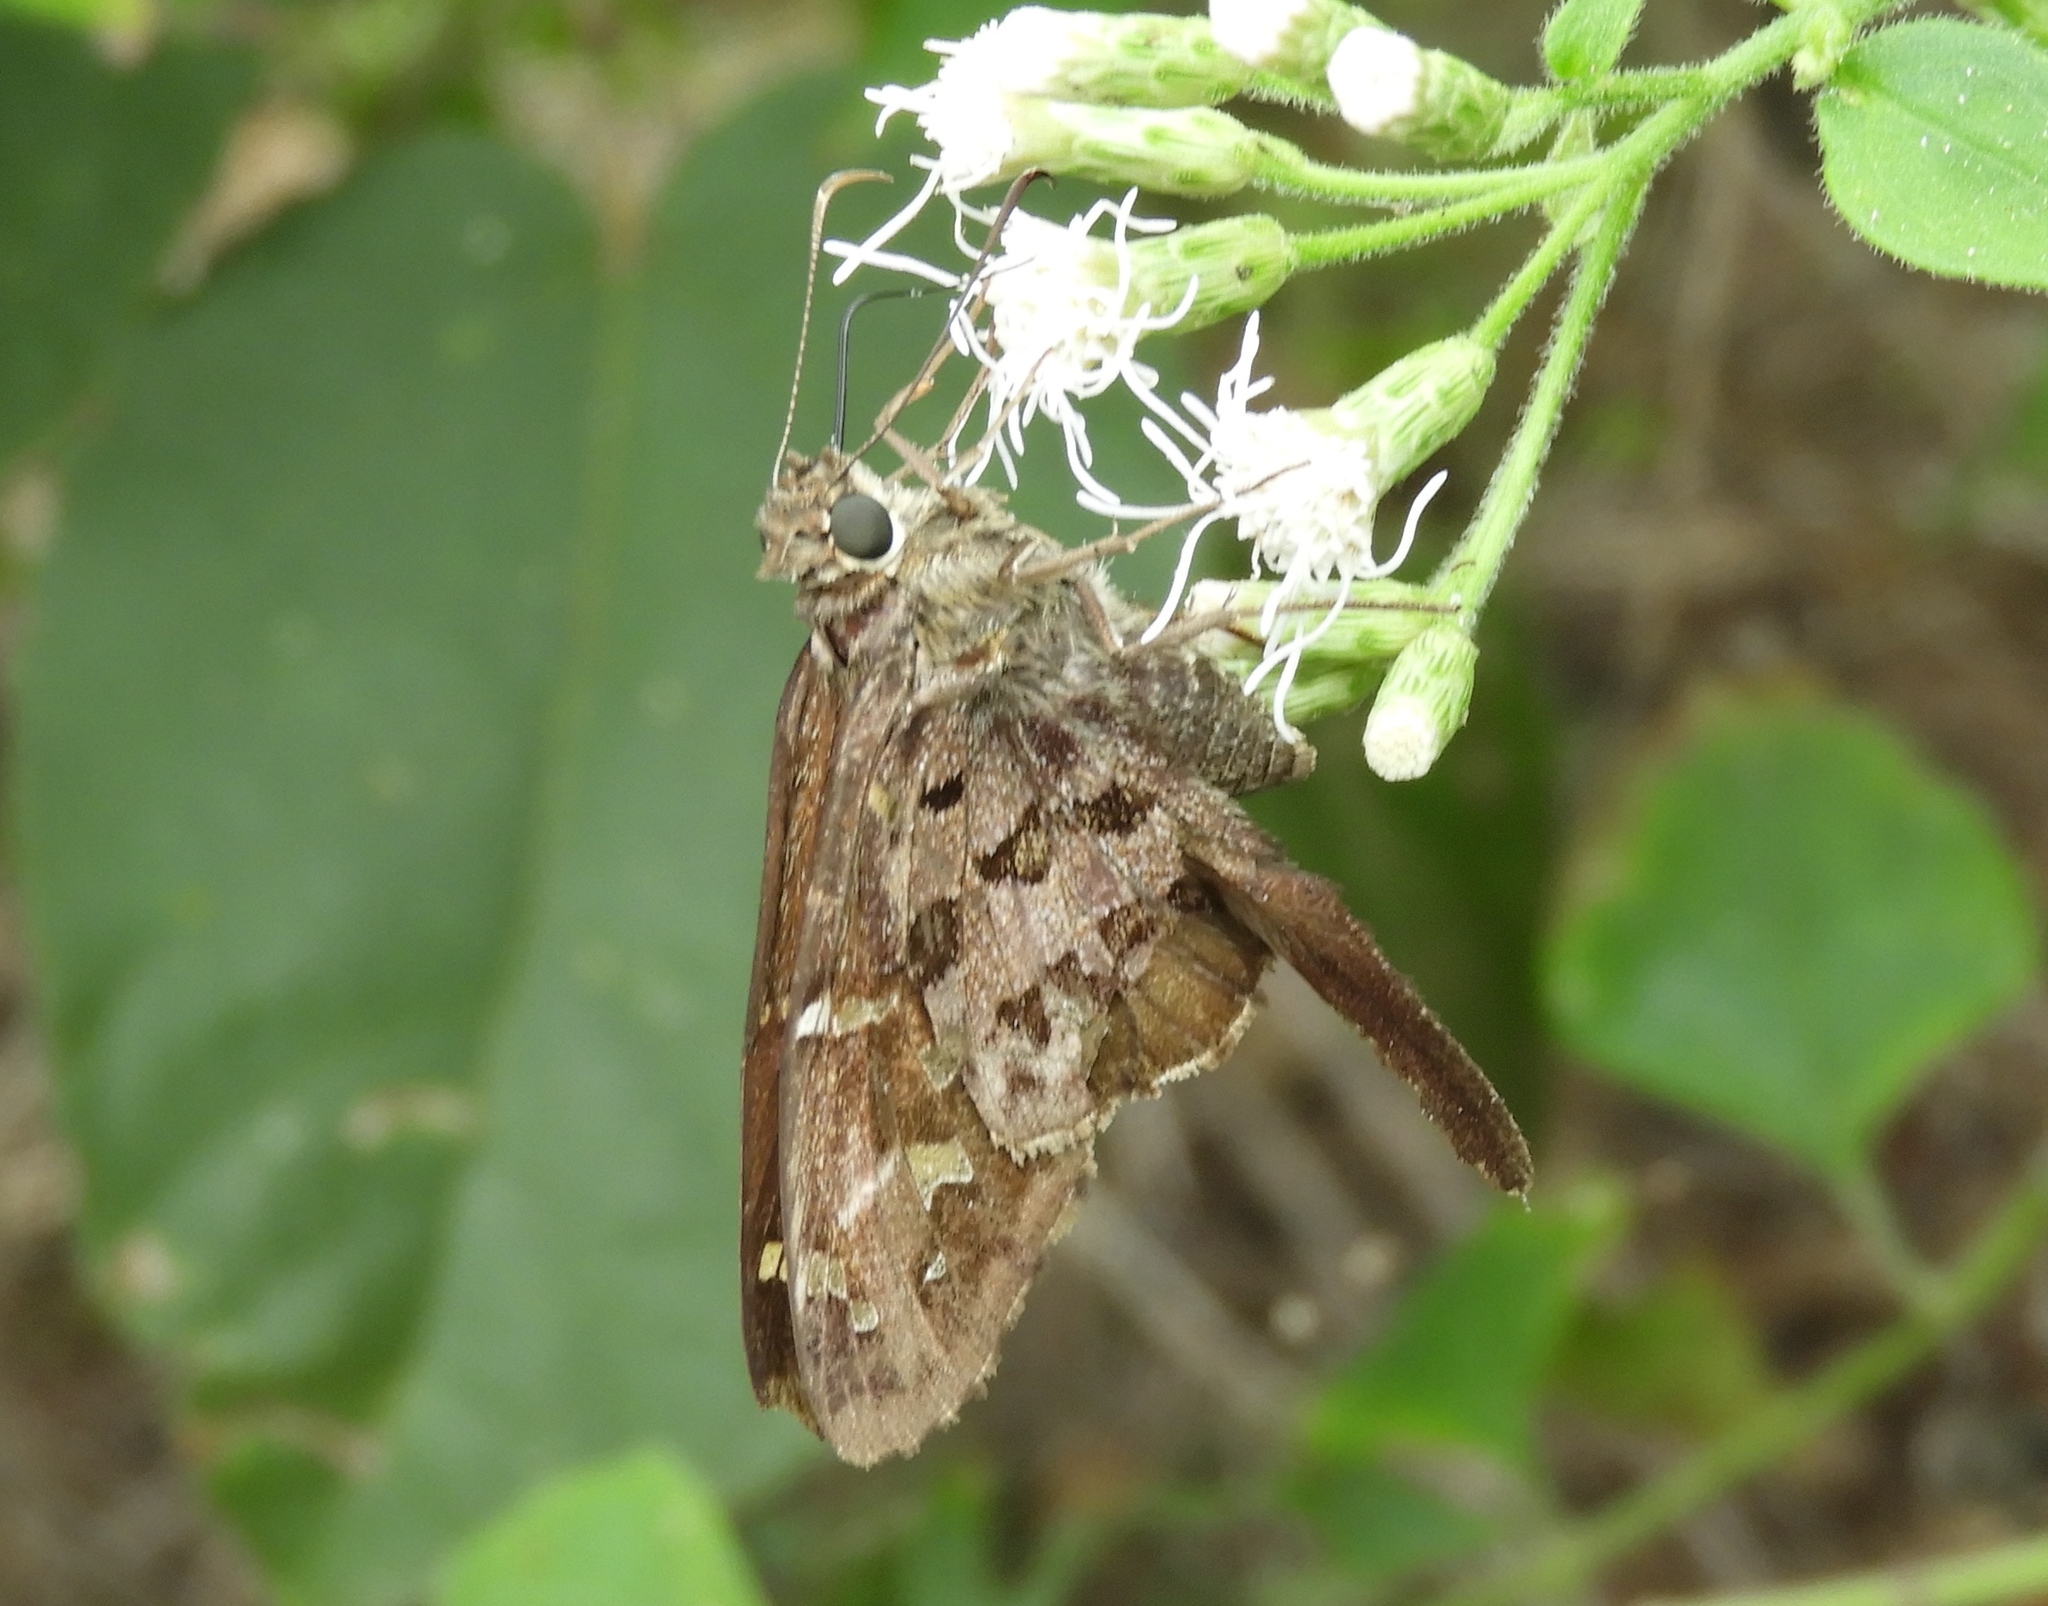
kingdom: Animalia
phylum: Arthropoda
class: Insecta
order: Lepidoptera
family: Hesperiidae
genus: Thorybes
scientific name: Thorybes
